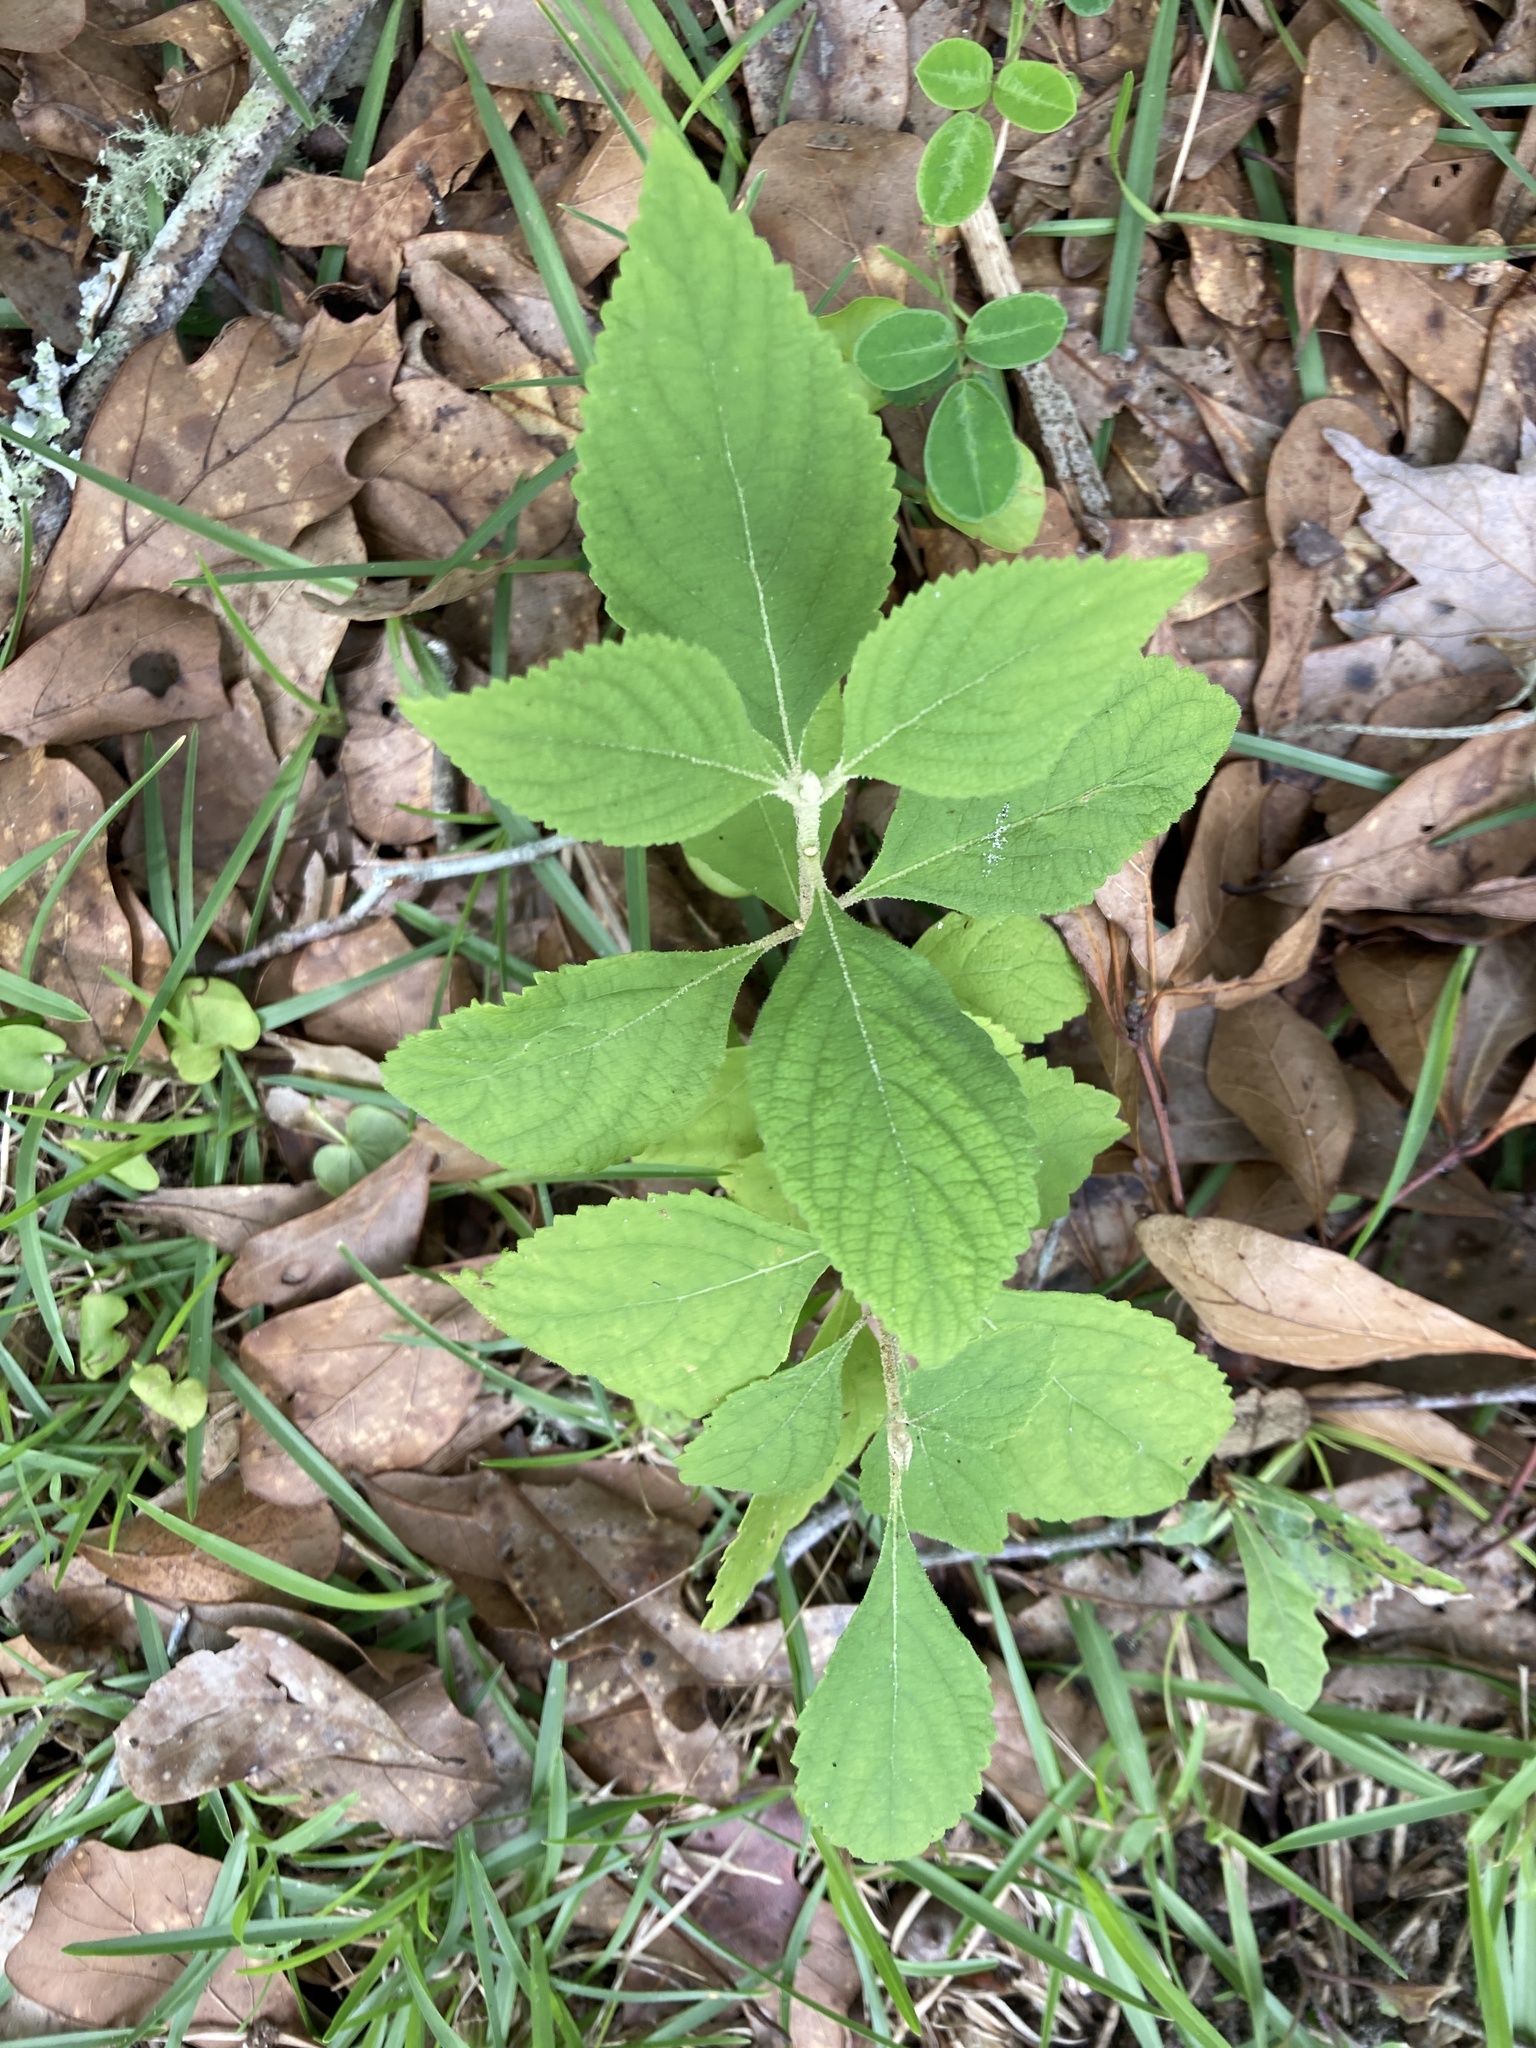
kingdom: Plantae
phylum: Tracheophyta
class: Magnoliopsida
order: Lamiales
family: Lamiaceae
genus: Callicarpa
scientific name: Callicarpa americana
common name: American beautyberry
